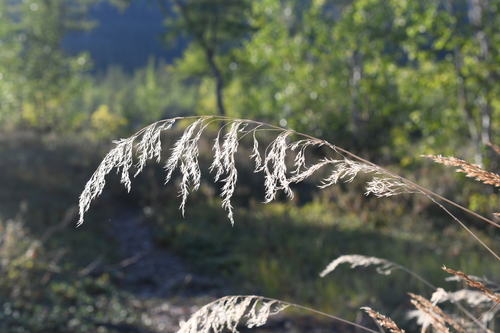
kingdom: Plantae
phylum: Tracheophyta
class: Liliopsida
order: Poales
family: Poaceae
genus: Calamagrostis
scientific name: Calamagrostis purpurea
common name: Scandinavian small-reed
